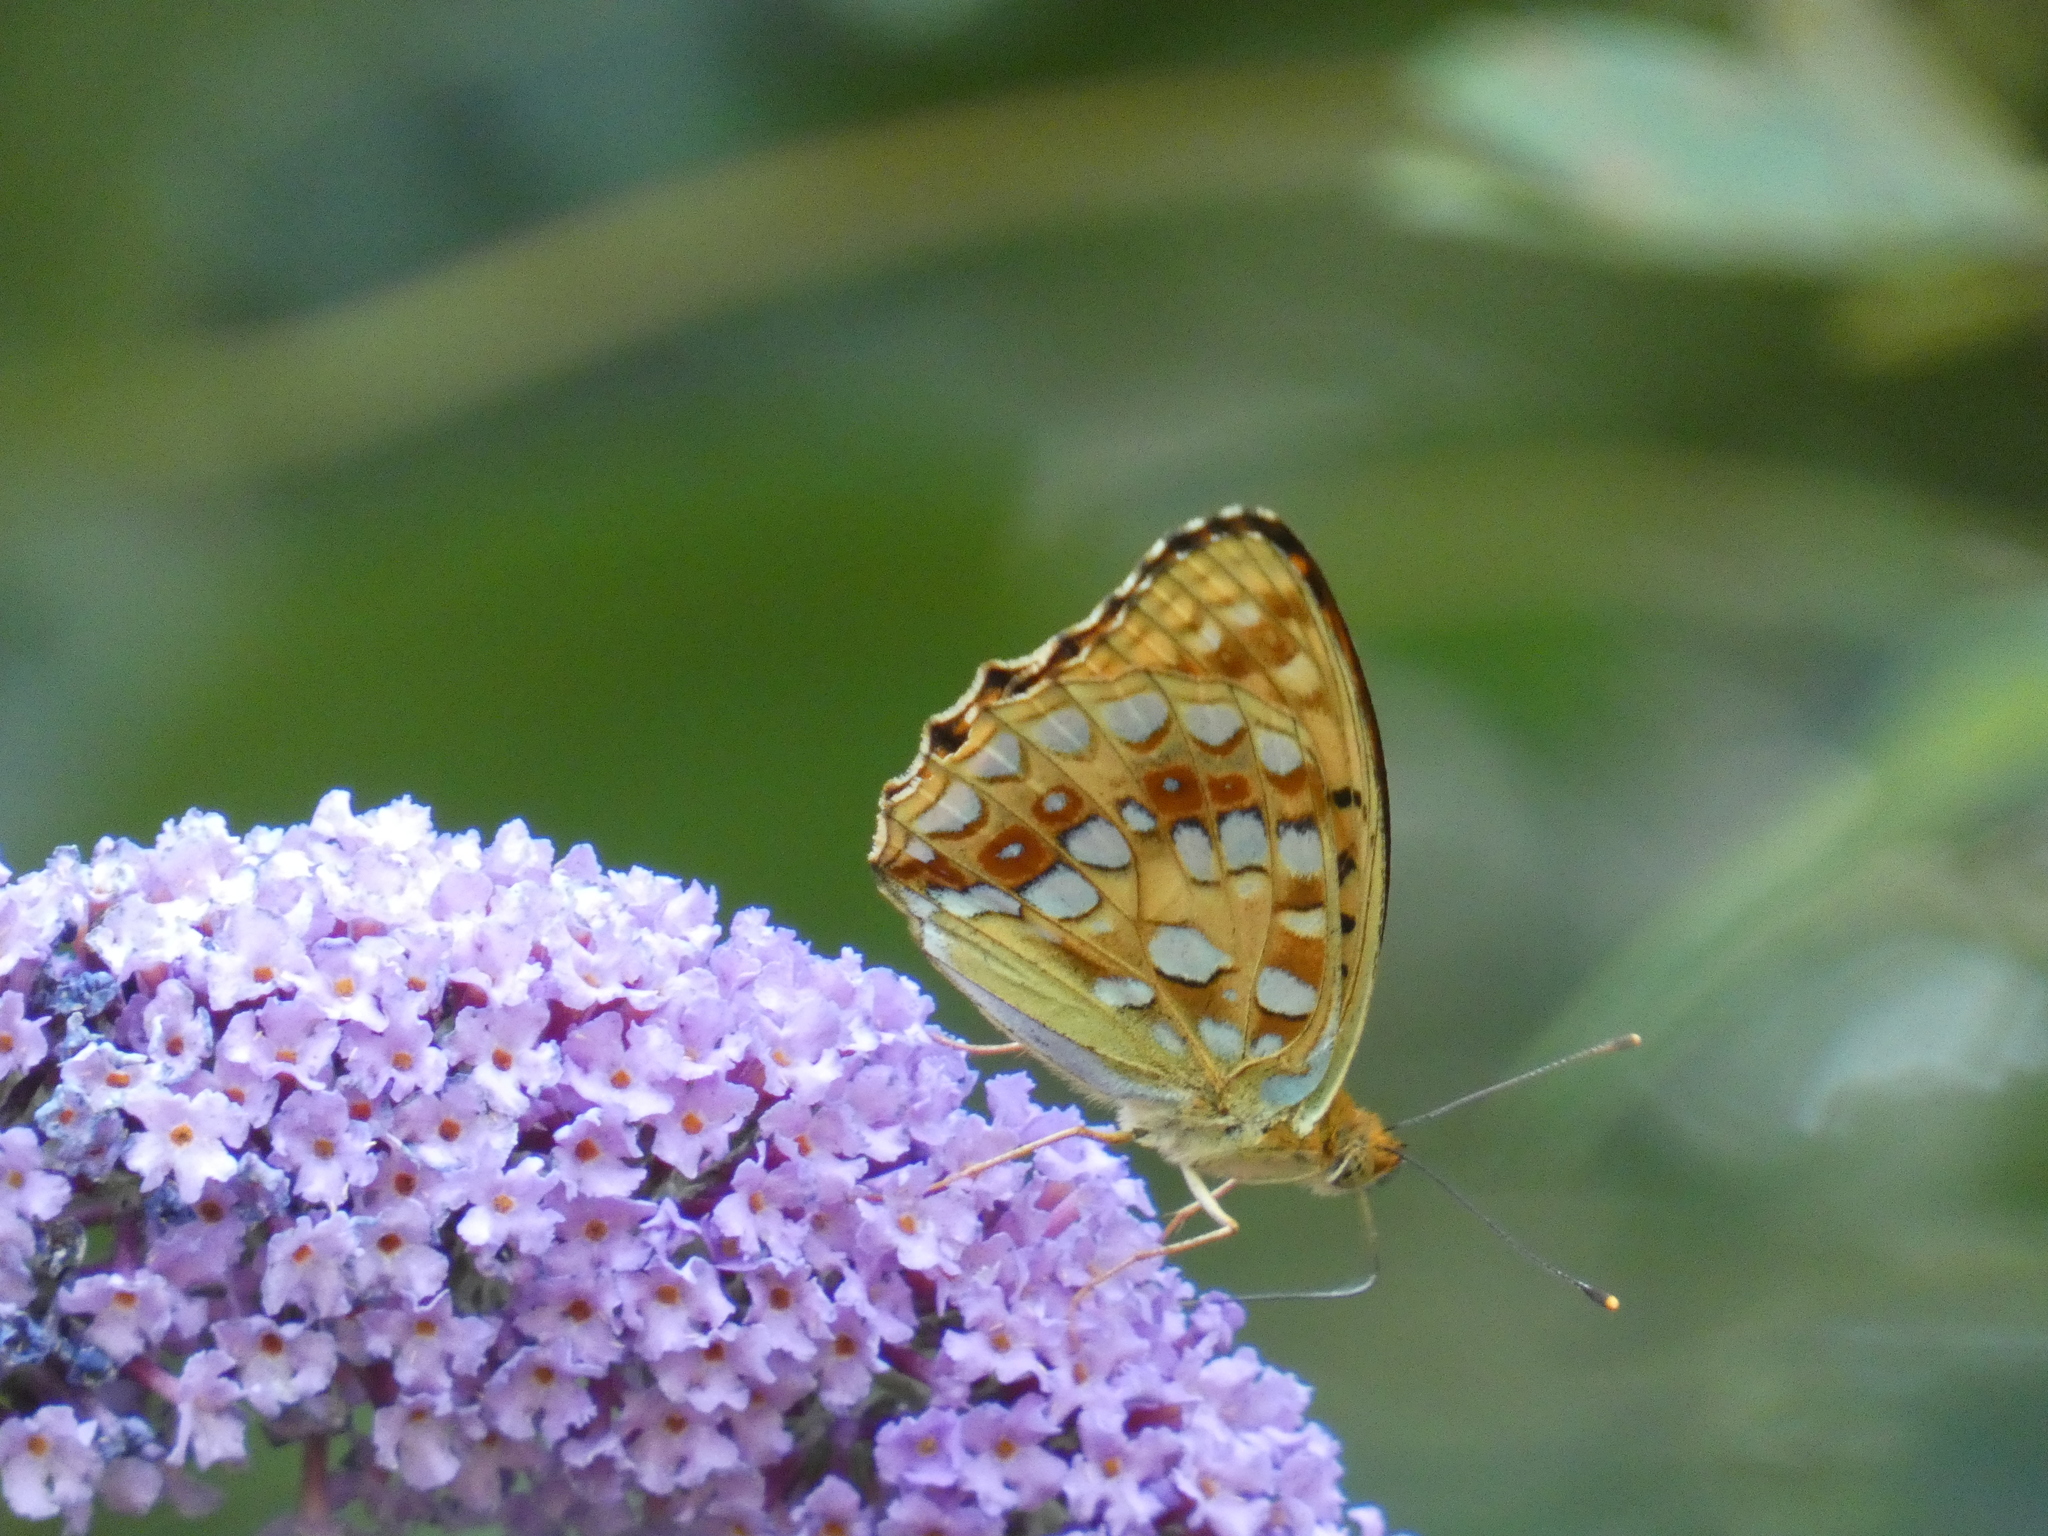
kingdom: Animalia
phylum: Arthropoda
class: Insecta
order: Lepidoptera
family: Nymphalidae
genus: Fabriciana
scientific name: Fabriciana adippe
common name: High brown fritillary
